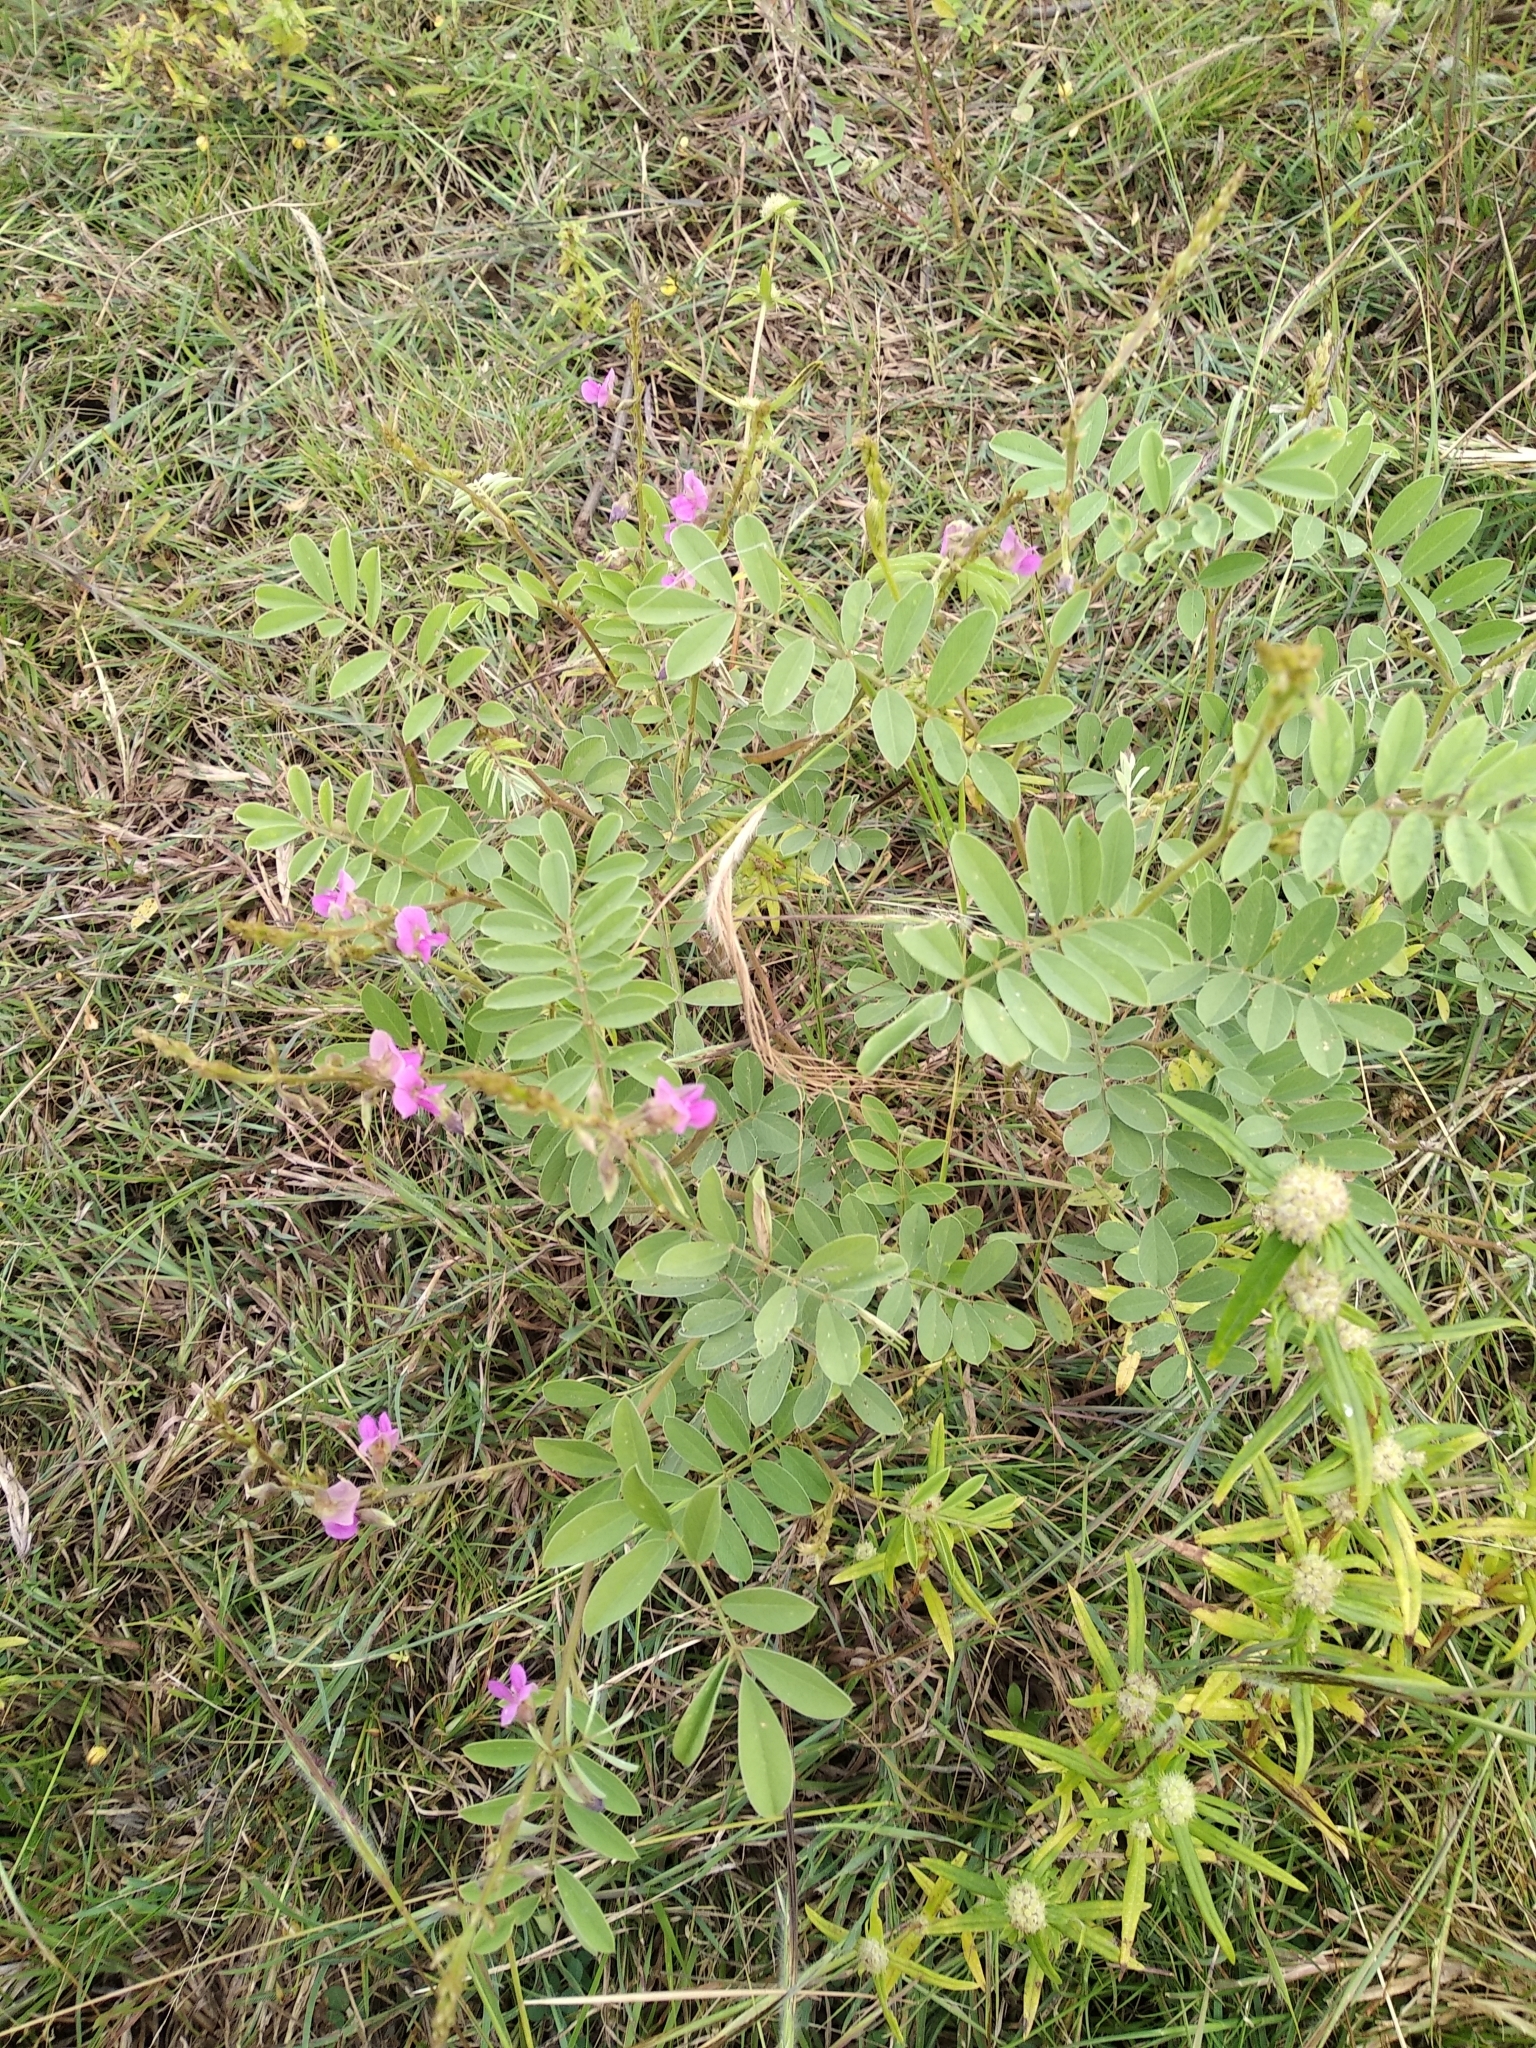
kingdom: Plantae
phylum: Tracheophyta
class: Magnoliopsida
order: Fabales
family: Fabaceae
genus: Tephrosia
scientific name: Tephrosia purpurea
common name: Fishpoison
